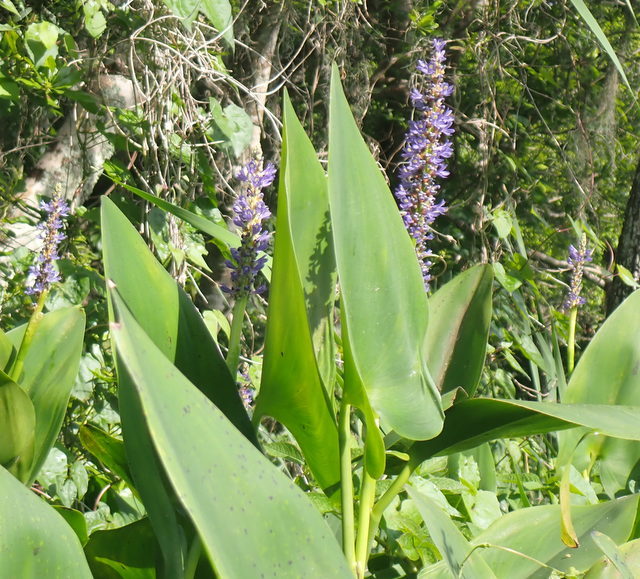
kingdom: Plantae
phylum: Tracheophyta
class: Liliopsida
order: Commelinales
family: Pontederiaceae
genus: Pontederia
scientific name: Pontederia cordata
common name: Pickerelweed
